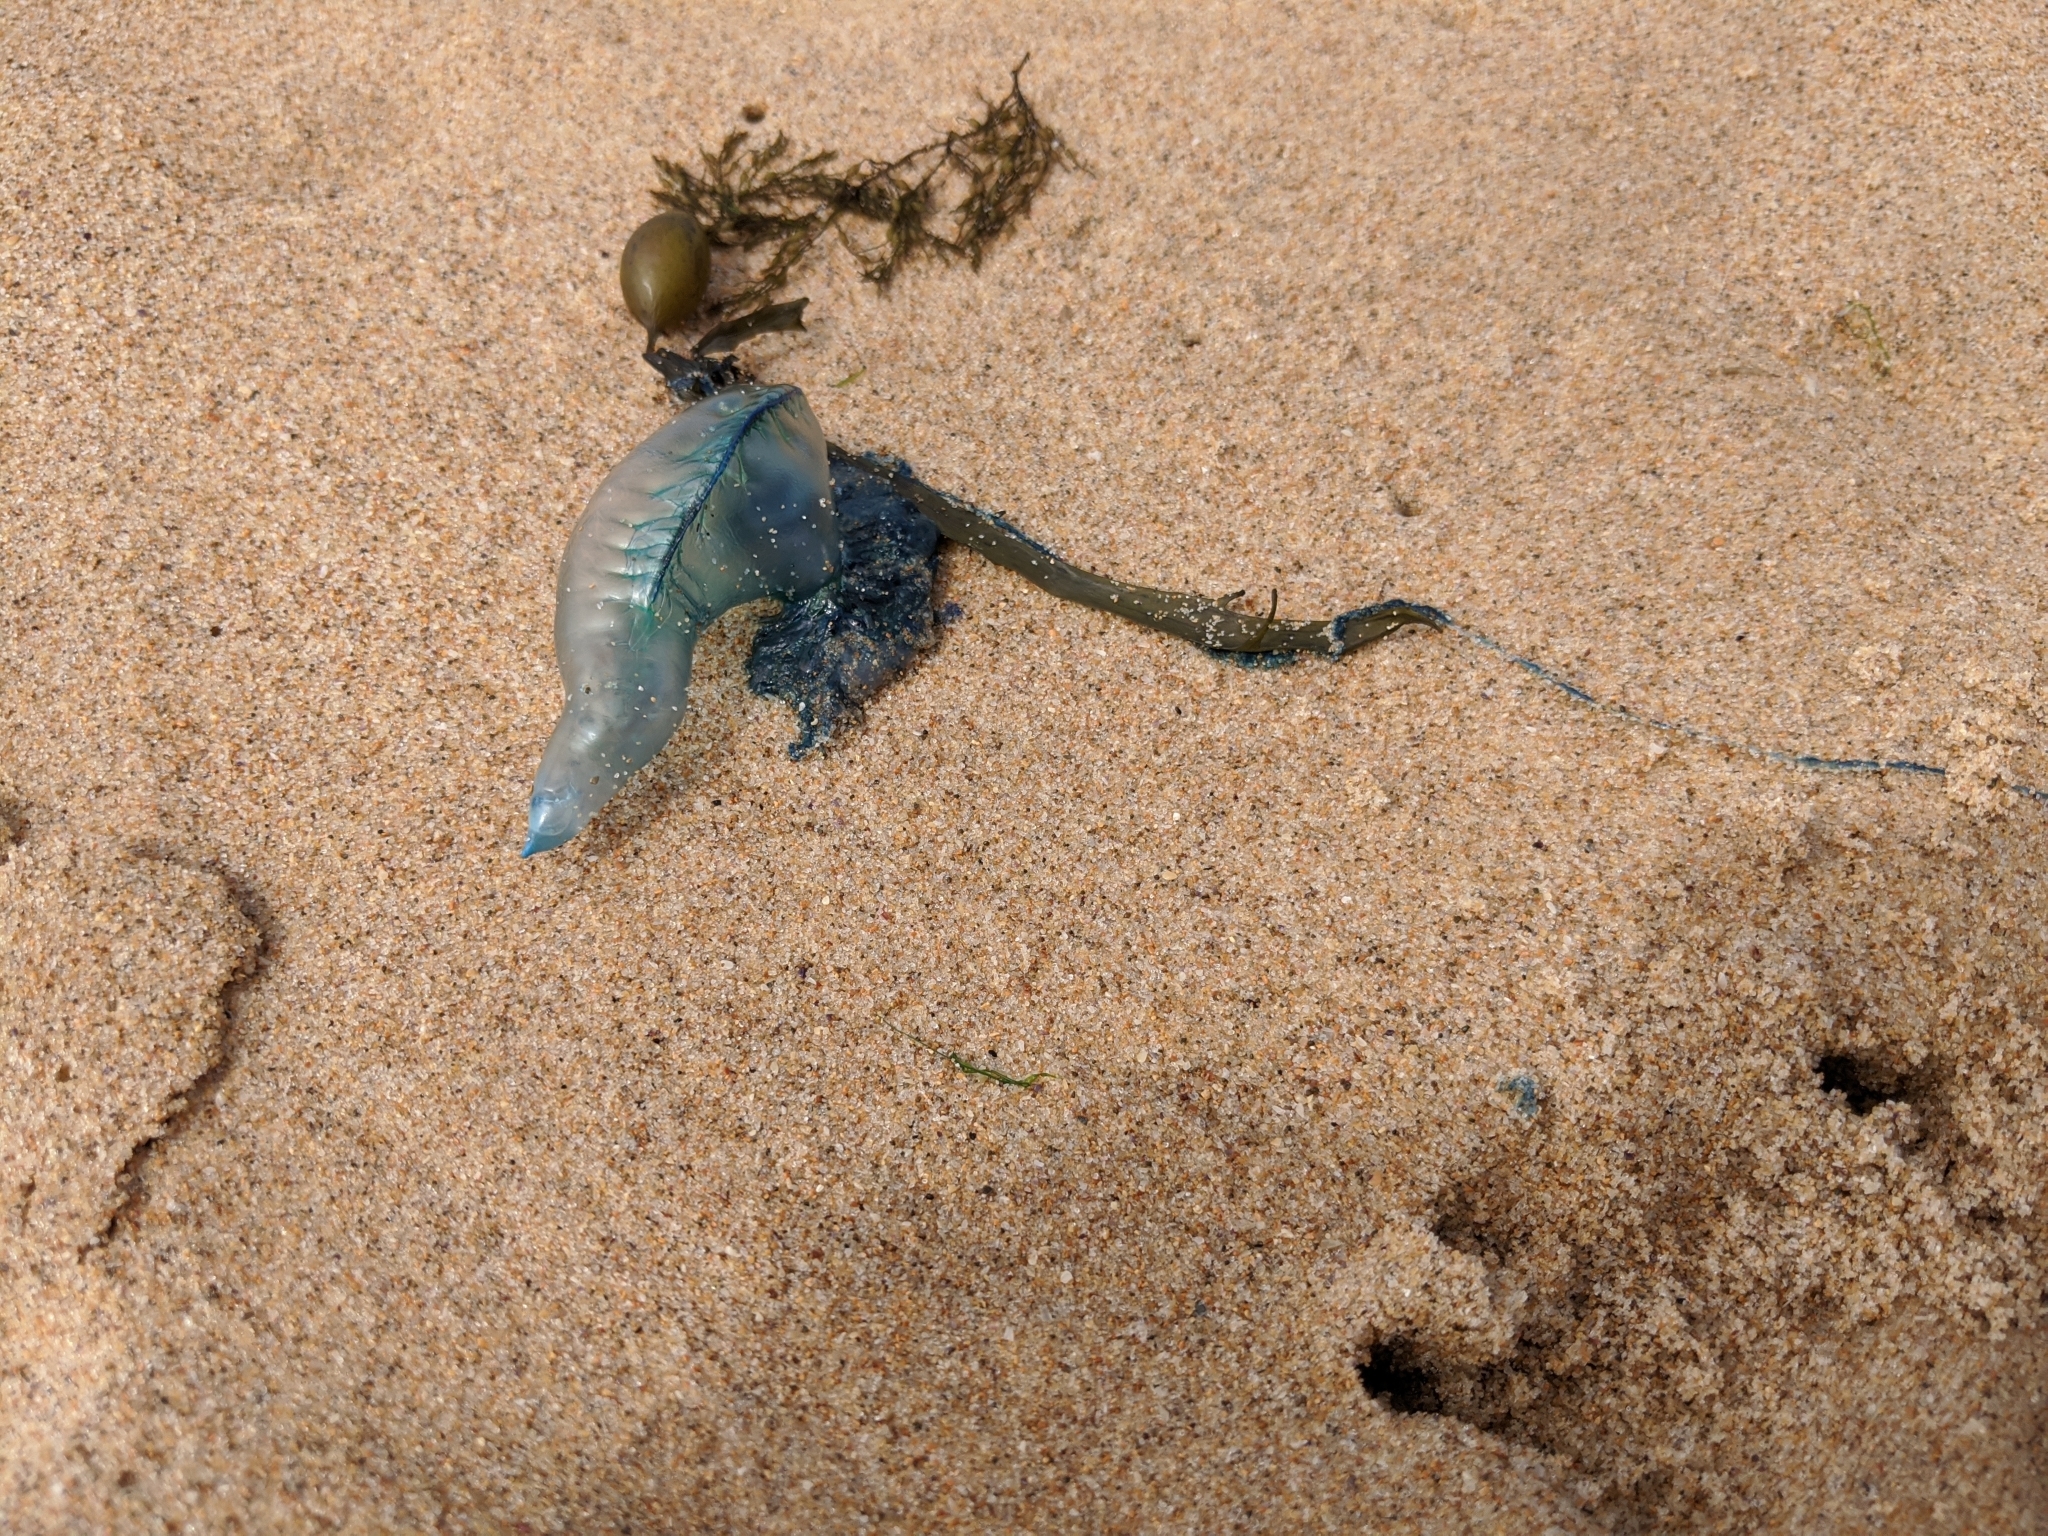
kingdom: Animalia
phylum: Cnidaria
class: Hydrozoa
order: Siphonophorae
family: Physaliidae
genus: Physalia
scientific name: Physalia physalis
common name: Portuguese man-of-war
